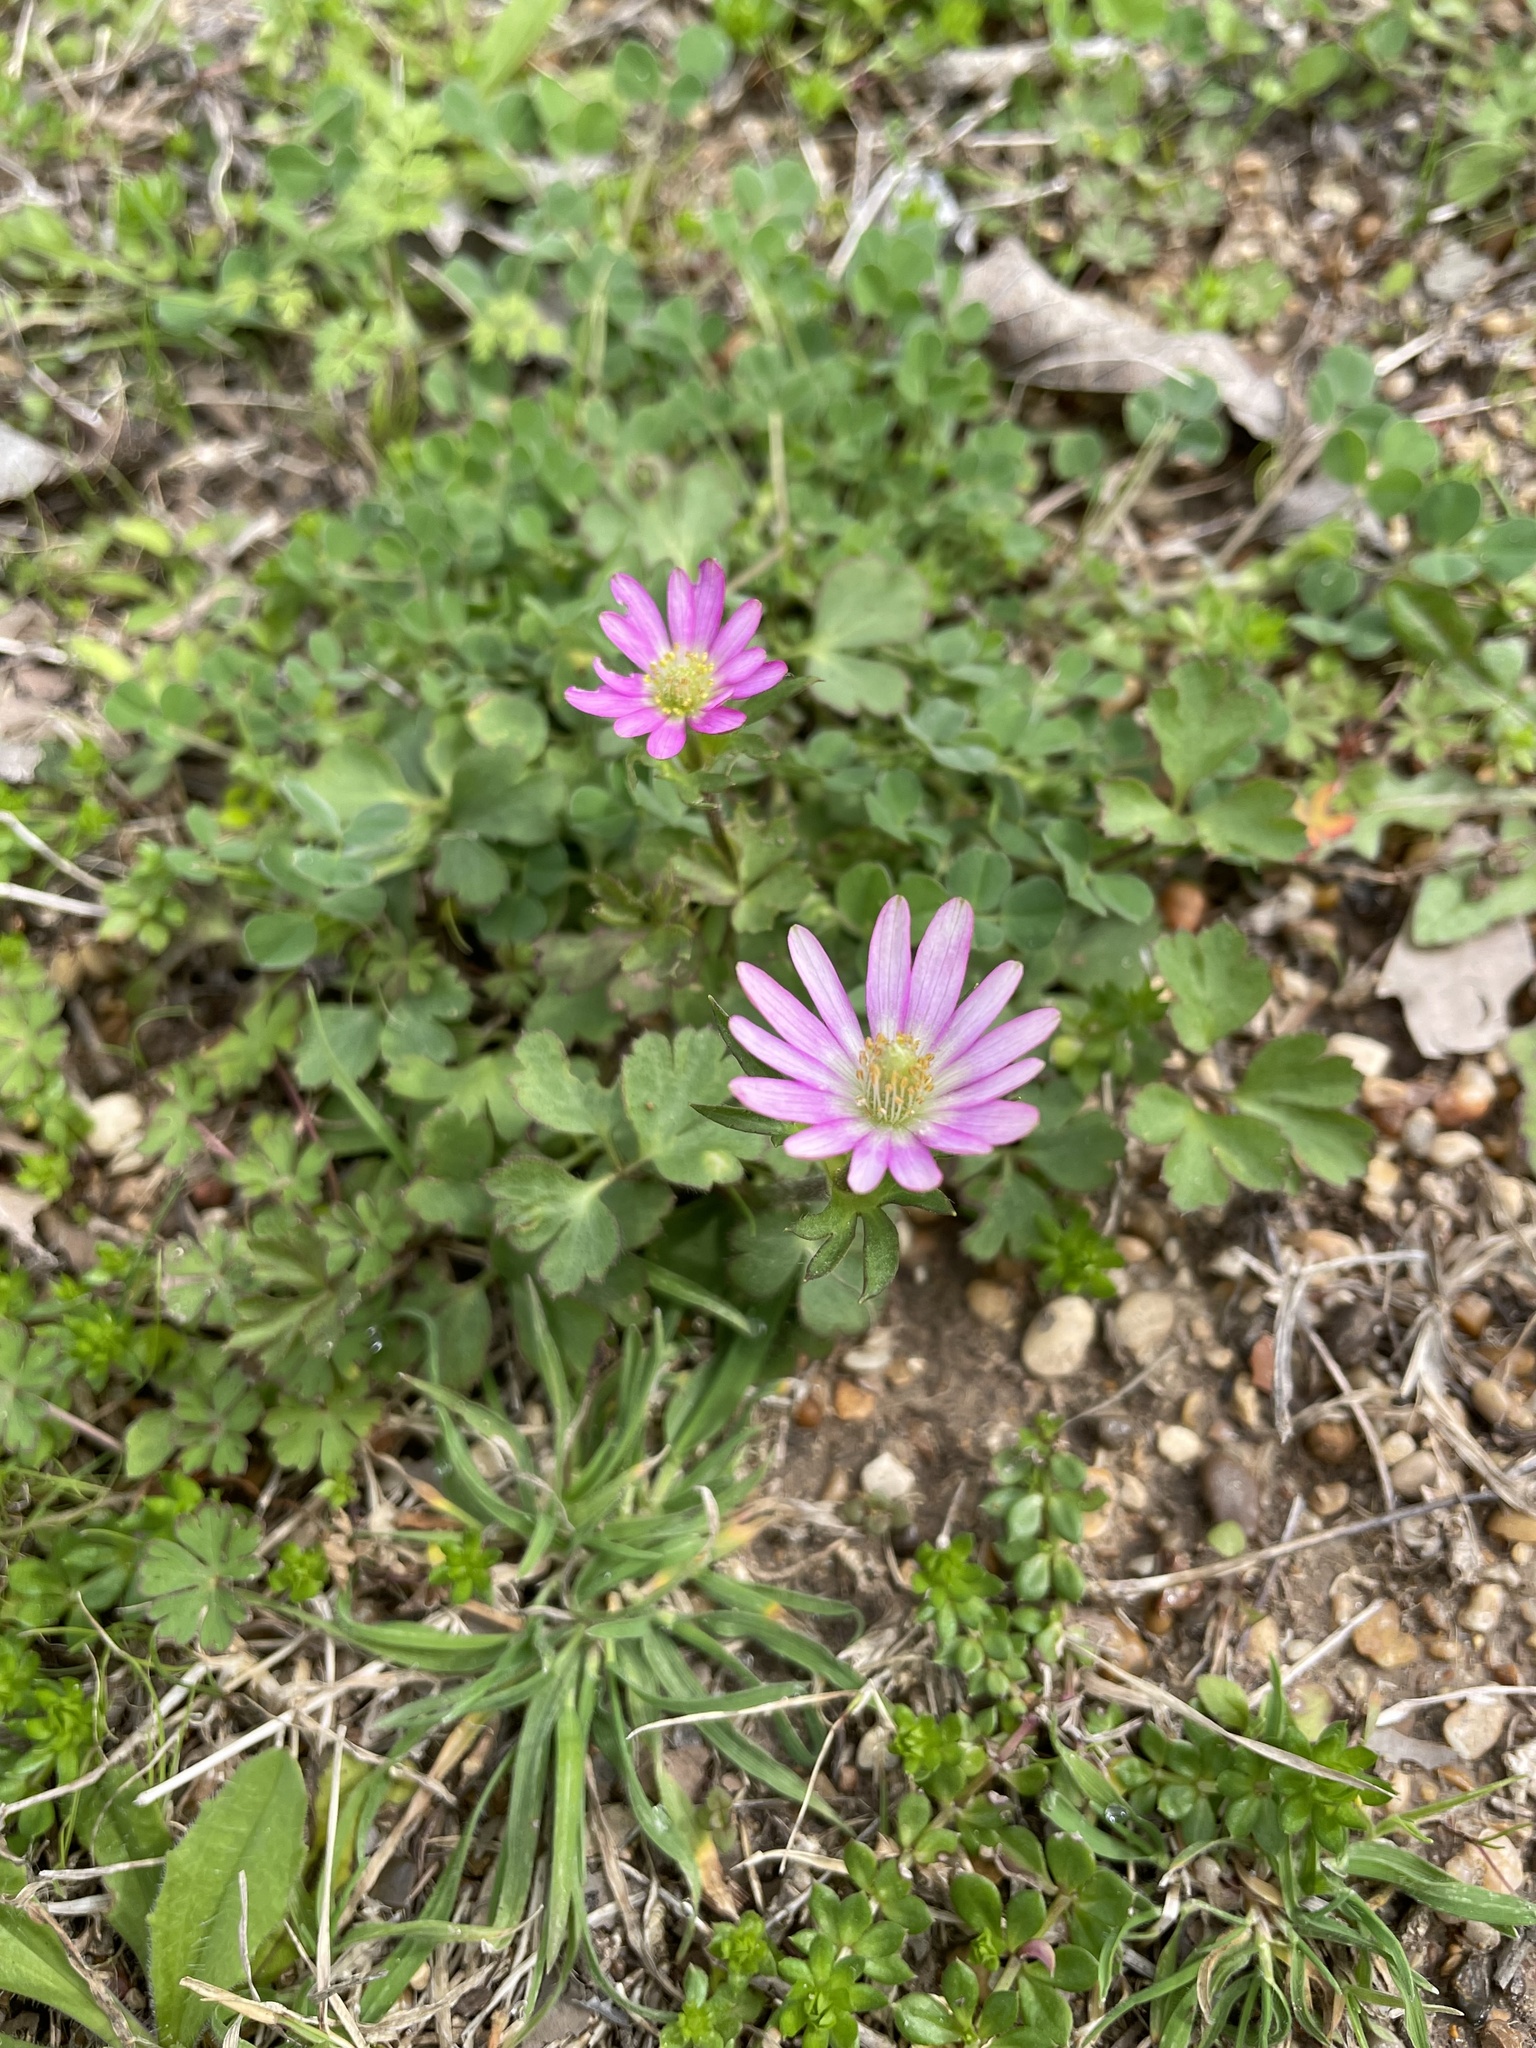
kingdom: Plantae
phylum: Tracheophyta
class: Magnoliopsida
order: Ranunculales
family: Ranunculaceae
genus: Anemone
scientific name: Anemone berlandieri
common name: Ten-petal anemone
